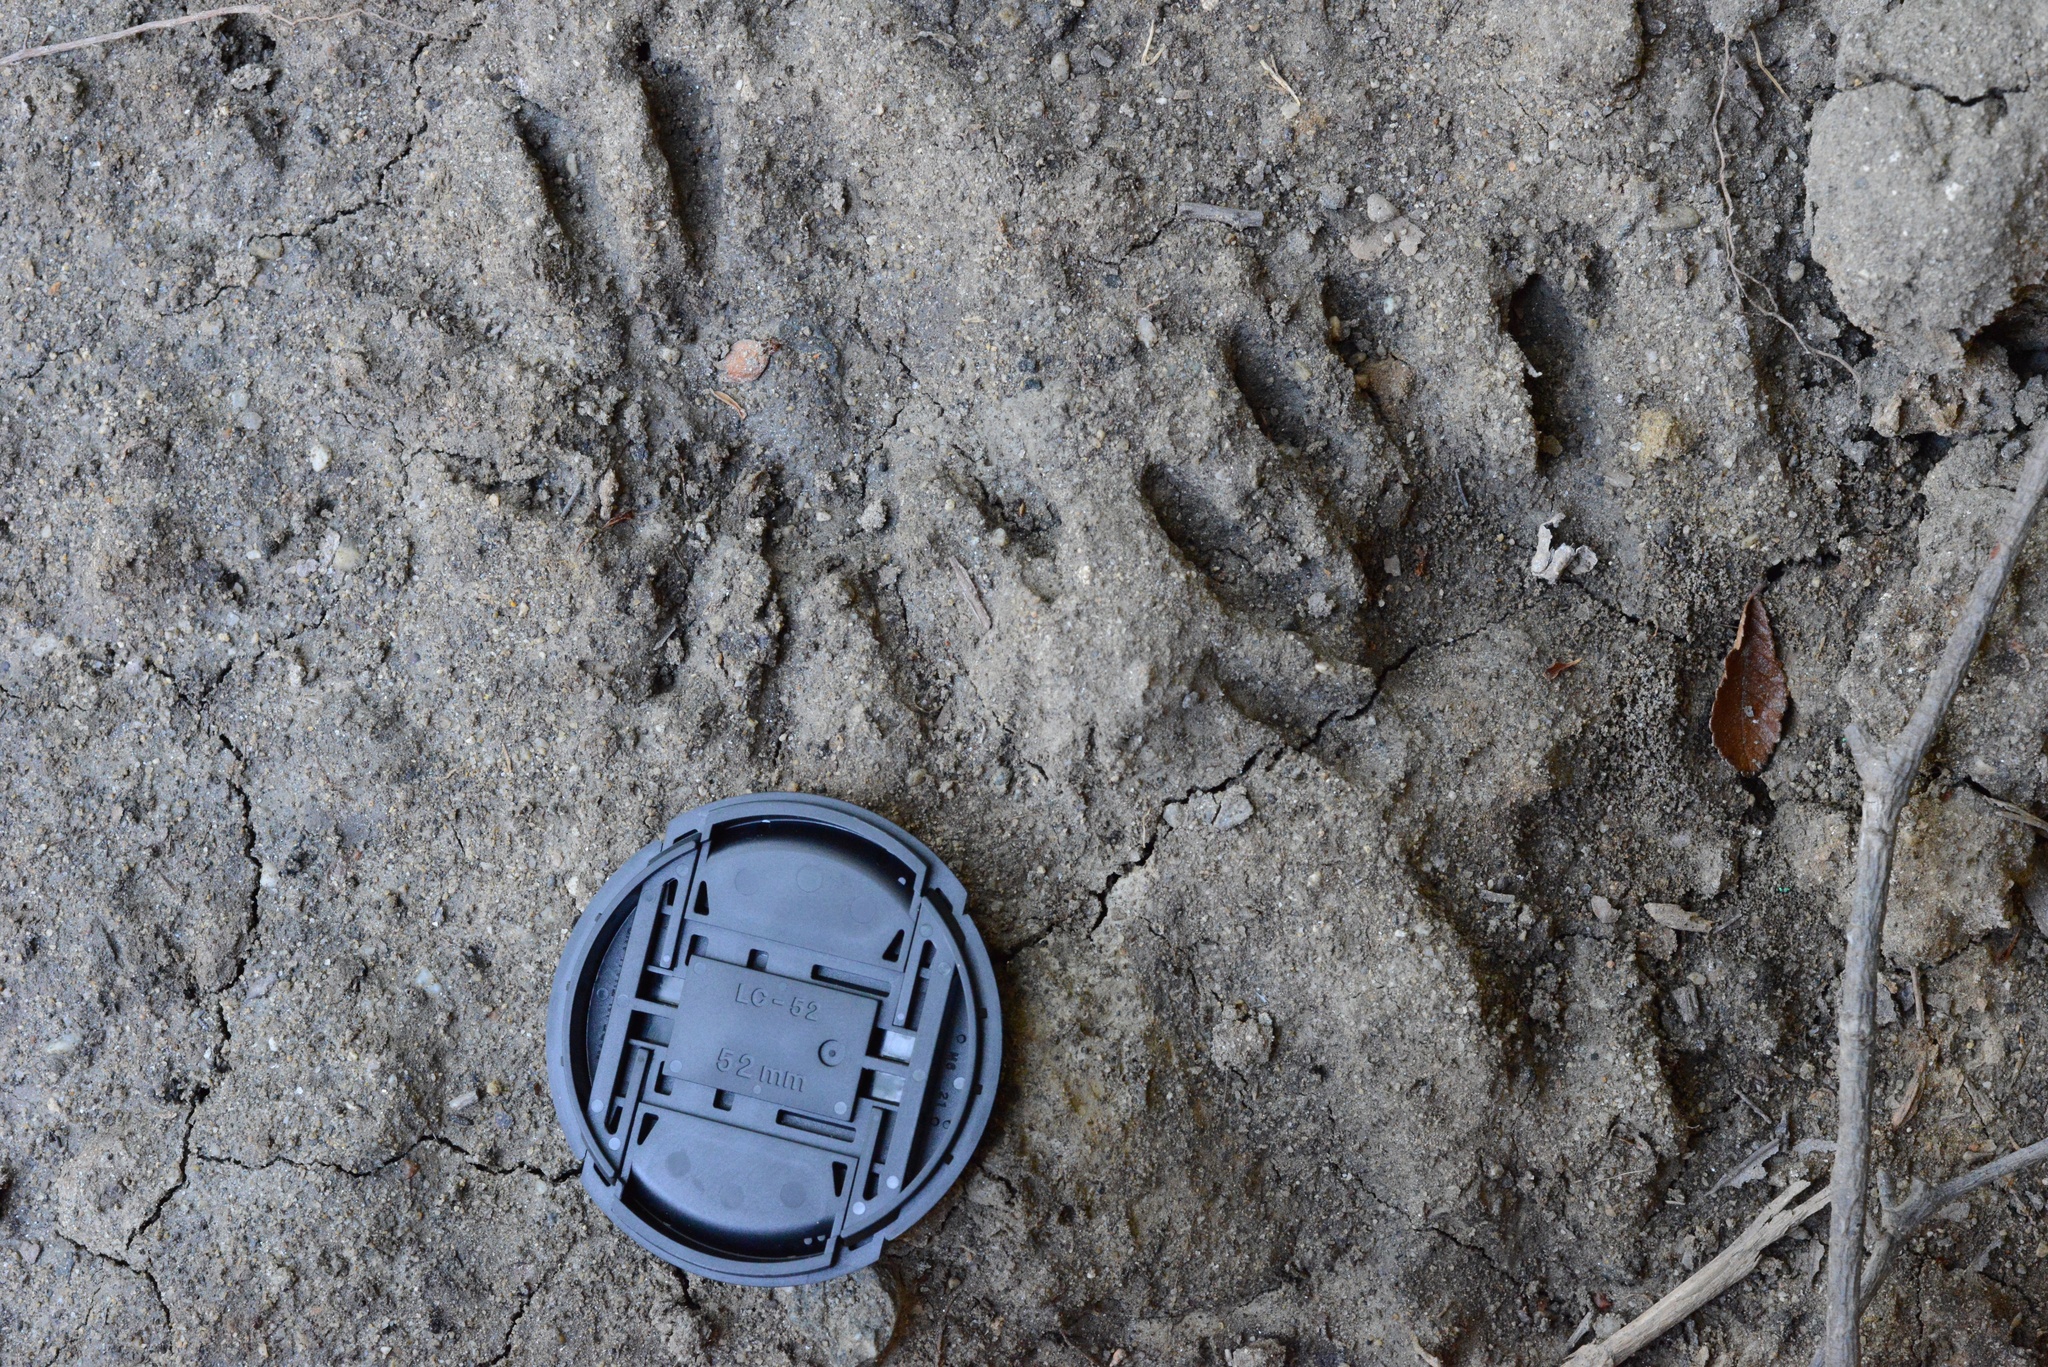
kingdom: Animalia
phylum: Chordata
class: Mammalia
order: Carnivora
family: Procyonidae
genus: Procyon
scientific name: Procyon lotor
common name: Raccoon
